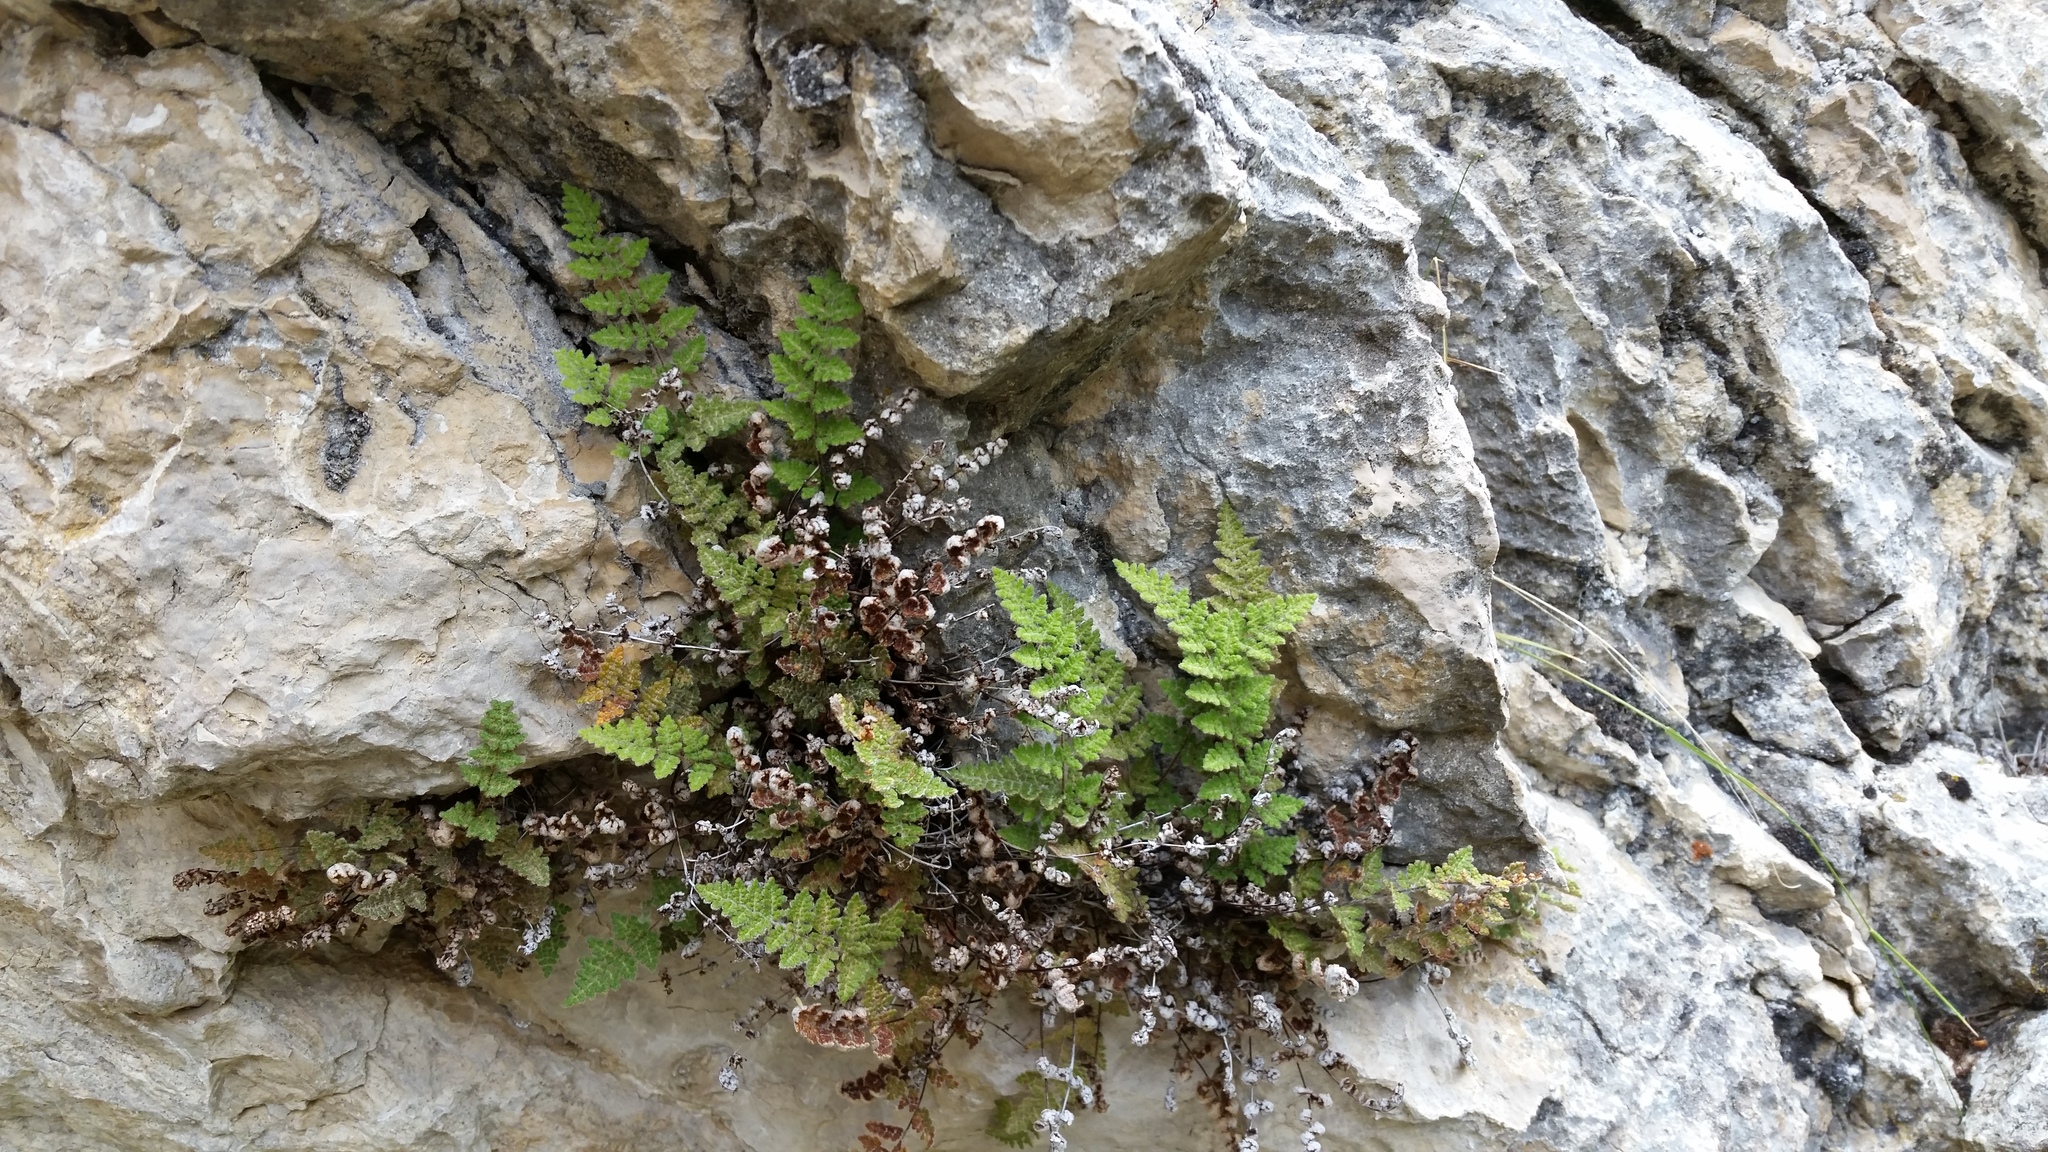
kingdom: Plantae
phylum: Tracheophyta
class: Polypodiopsida
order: Polypodiales
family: Pteridaceae
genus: Myriopteris
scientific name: Myriopteris gracilis
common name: Fee's lip fern
